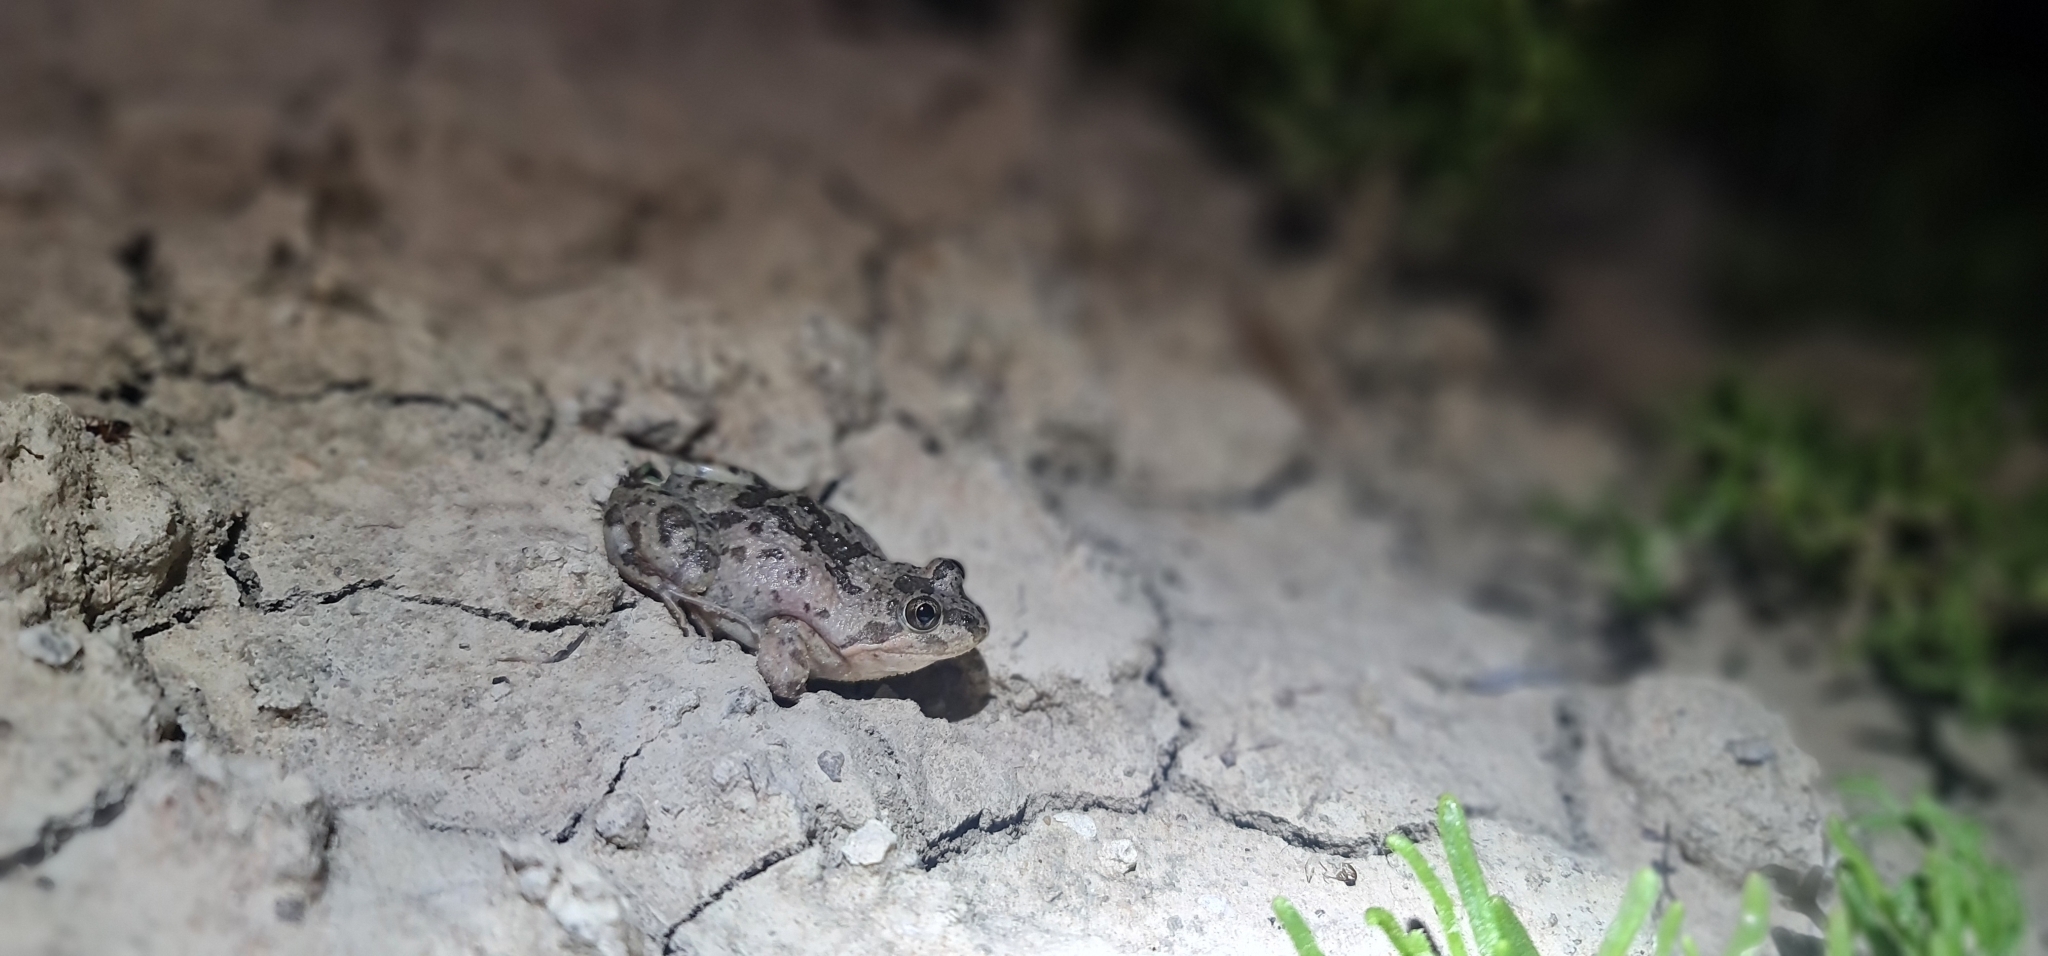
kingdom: Animalia
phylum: Chordata
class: Amphibia
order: Anura
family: Limnodynastidae
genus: Limnodynastes
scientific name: Limnodynastes fletcheri
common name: Barking frog
